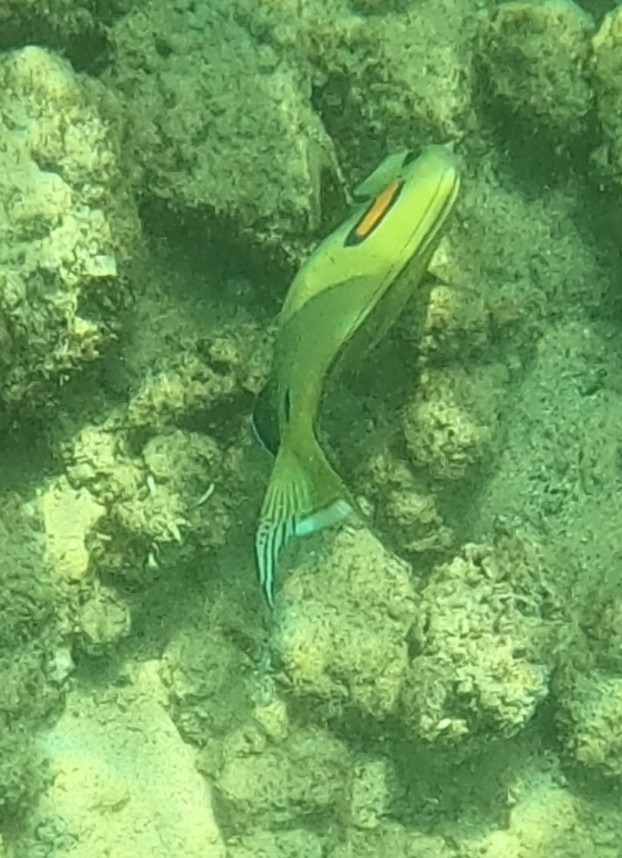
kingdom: Animalia
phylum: Chordata
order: Perciformes
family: Acanthuridae
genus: Acanthurus
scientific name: Acanthurus olivaceus
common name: Gendarme fish
